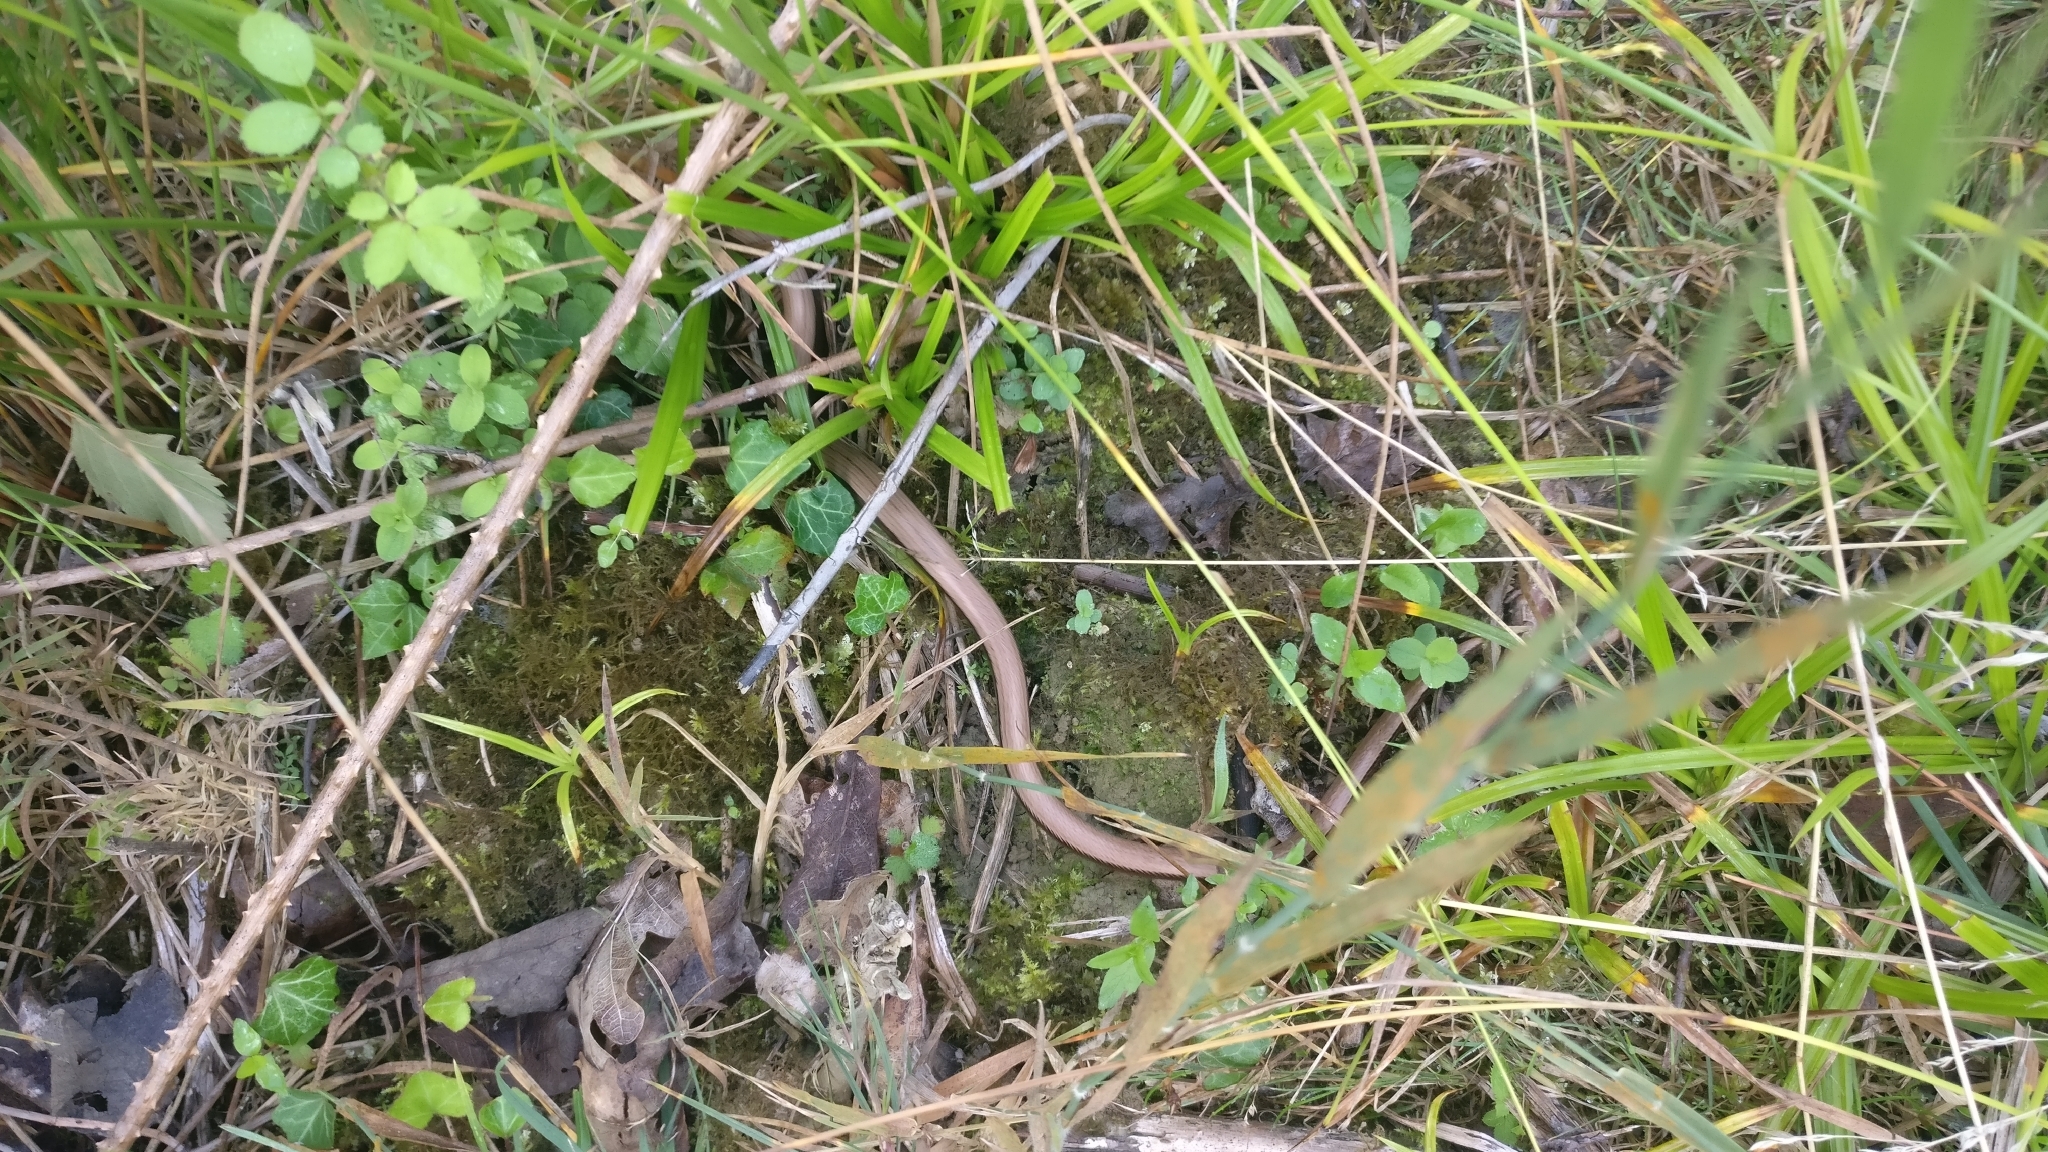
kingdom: Animalia
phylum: Chordata
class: Squamata
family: Anguidae
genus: Anguis
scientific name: Anguis fragilis
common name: Slow worm
